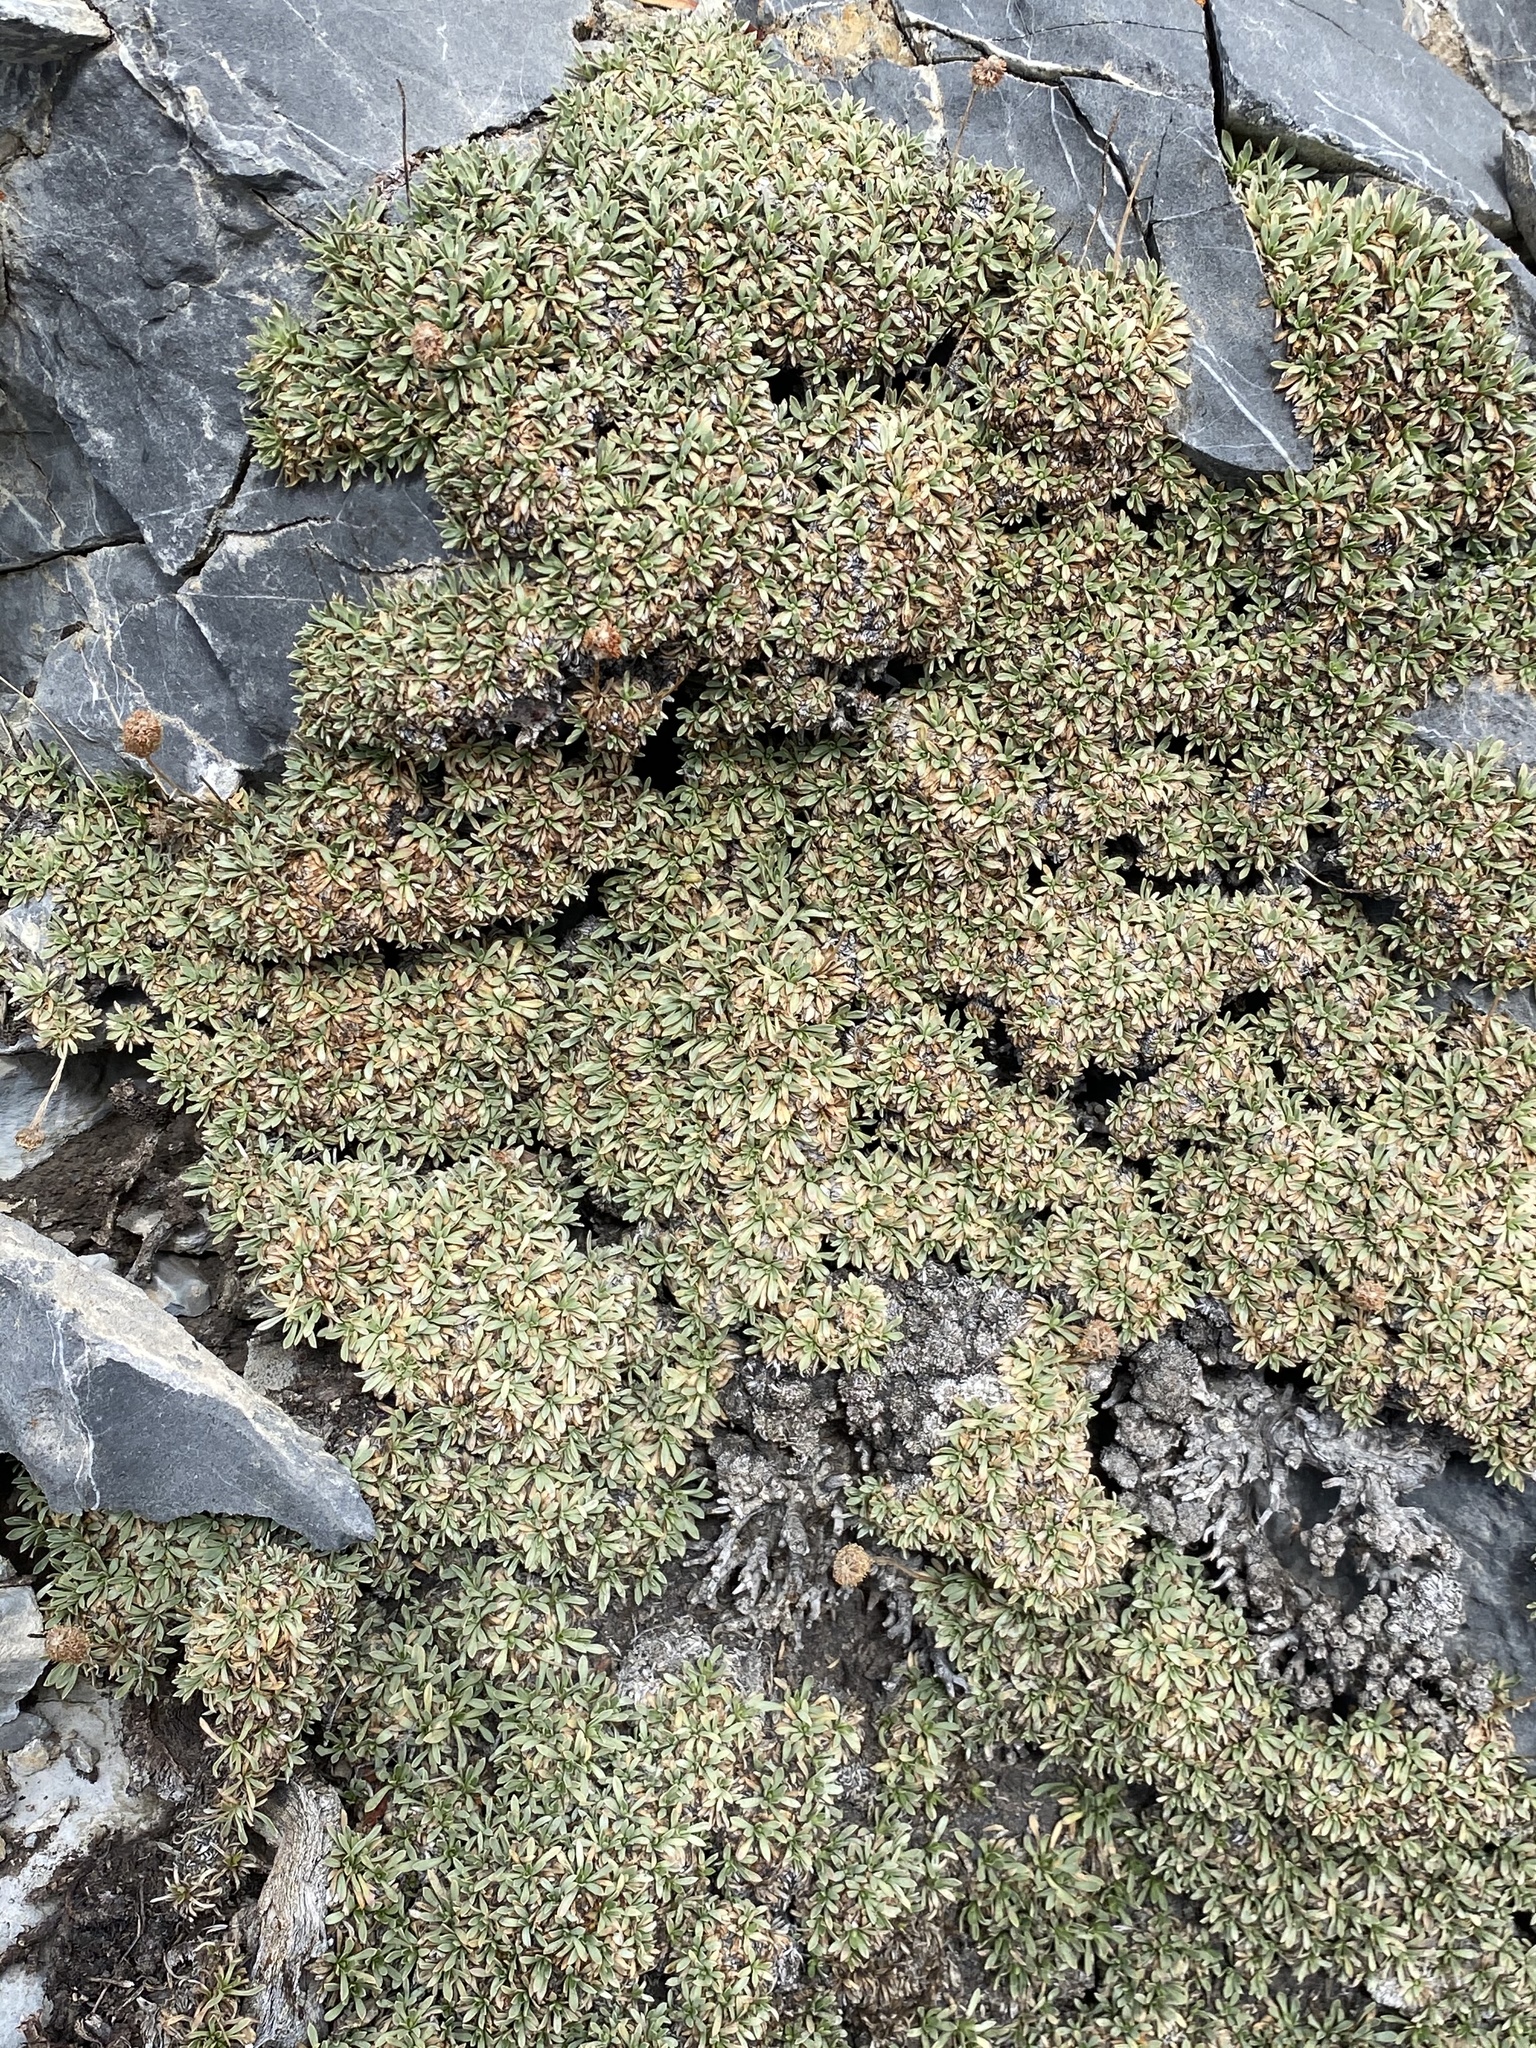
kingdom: Plantae
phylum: Tracheophyta
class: Magnoliopsida
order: Rosales
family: Rosaceae
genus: Petrophytum
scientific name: Petrophytum caespitosum
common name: Mat rockspirea
